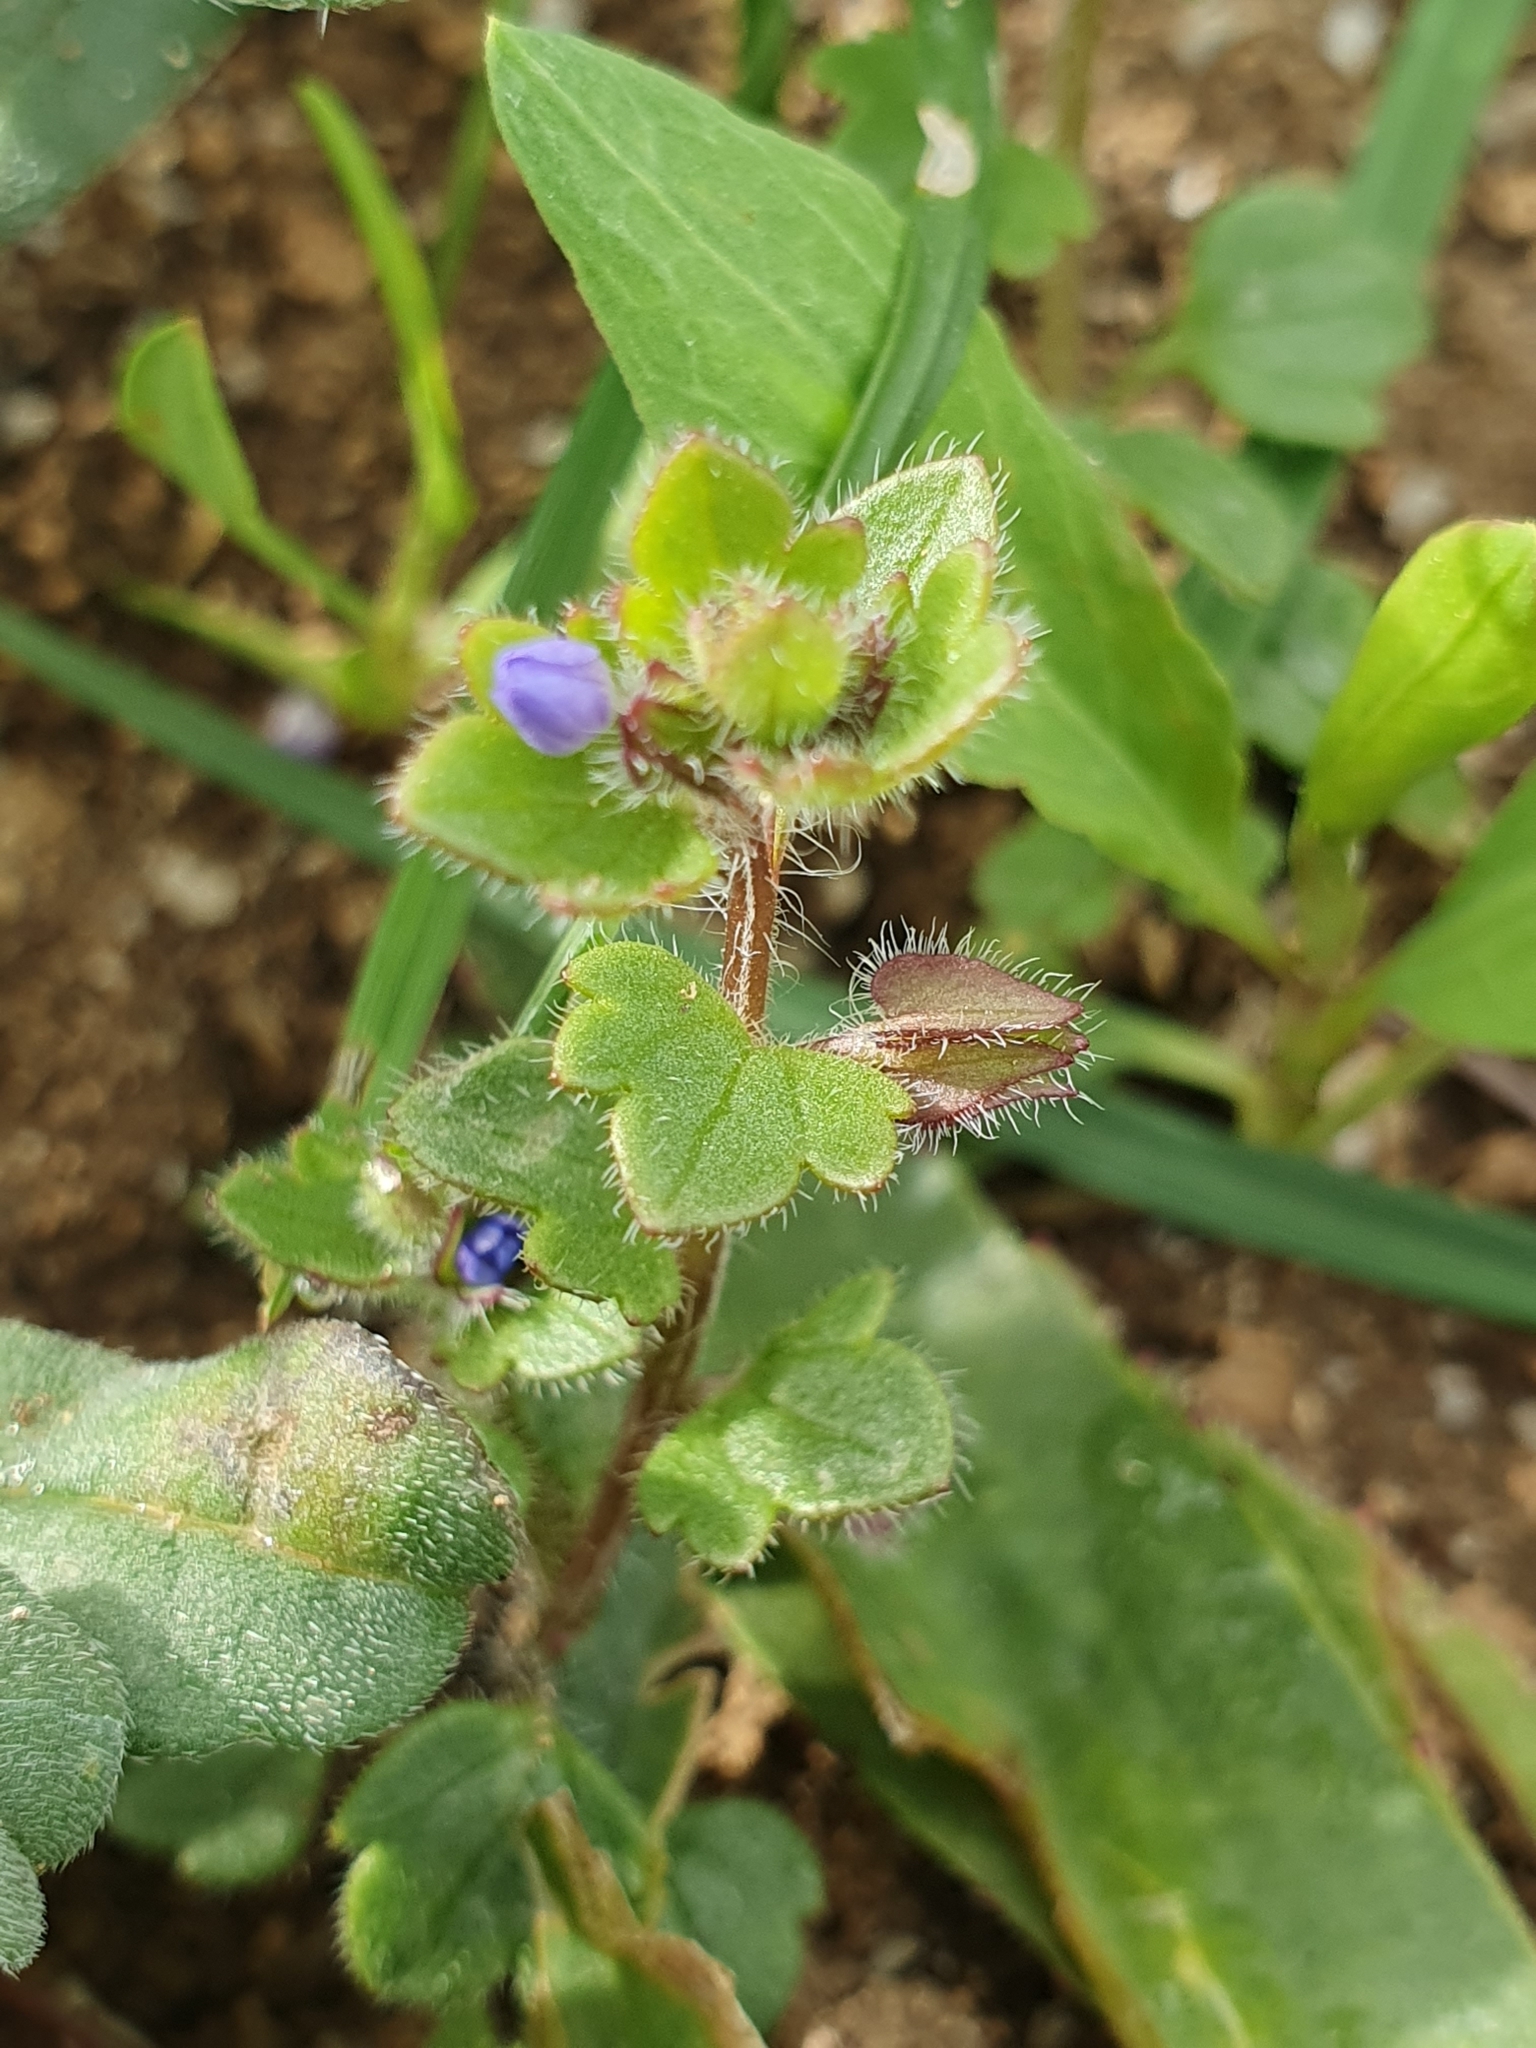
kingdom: Plantae
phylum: Tracheophyta
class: Magnoliopsida
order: Lamiales
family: Plantaginaceae
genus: Veronica
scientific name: Veronica hederifolia
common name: Ivy-leaved speedwell
